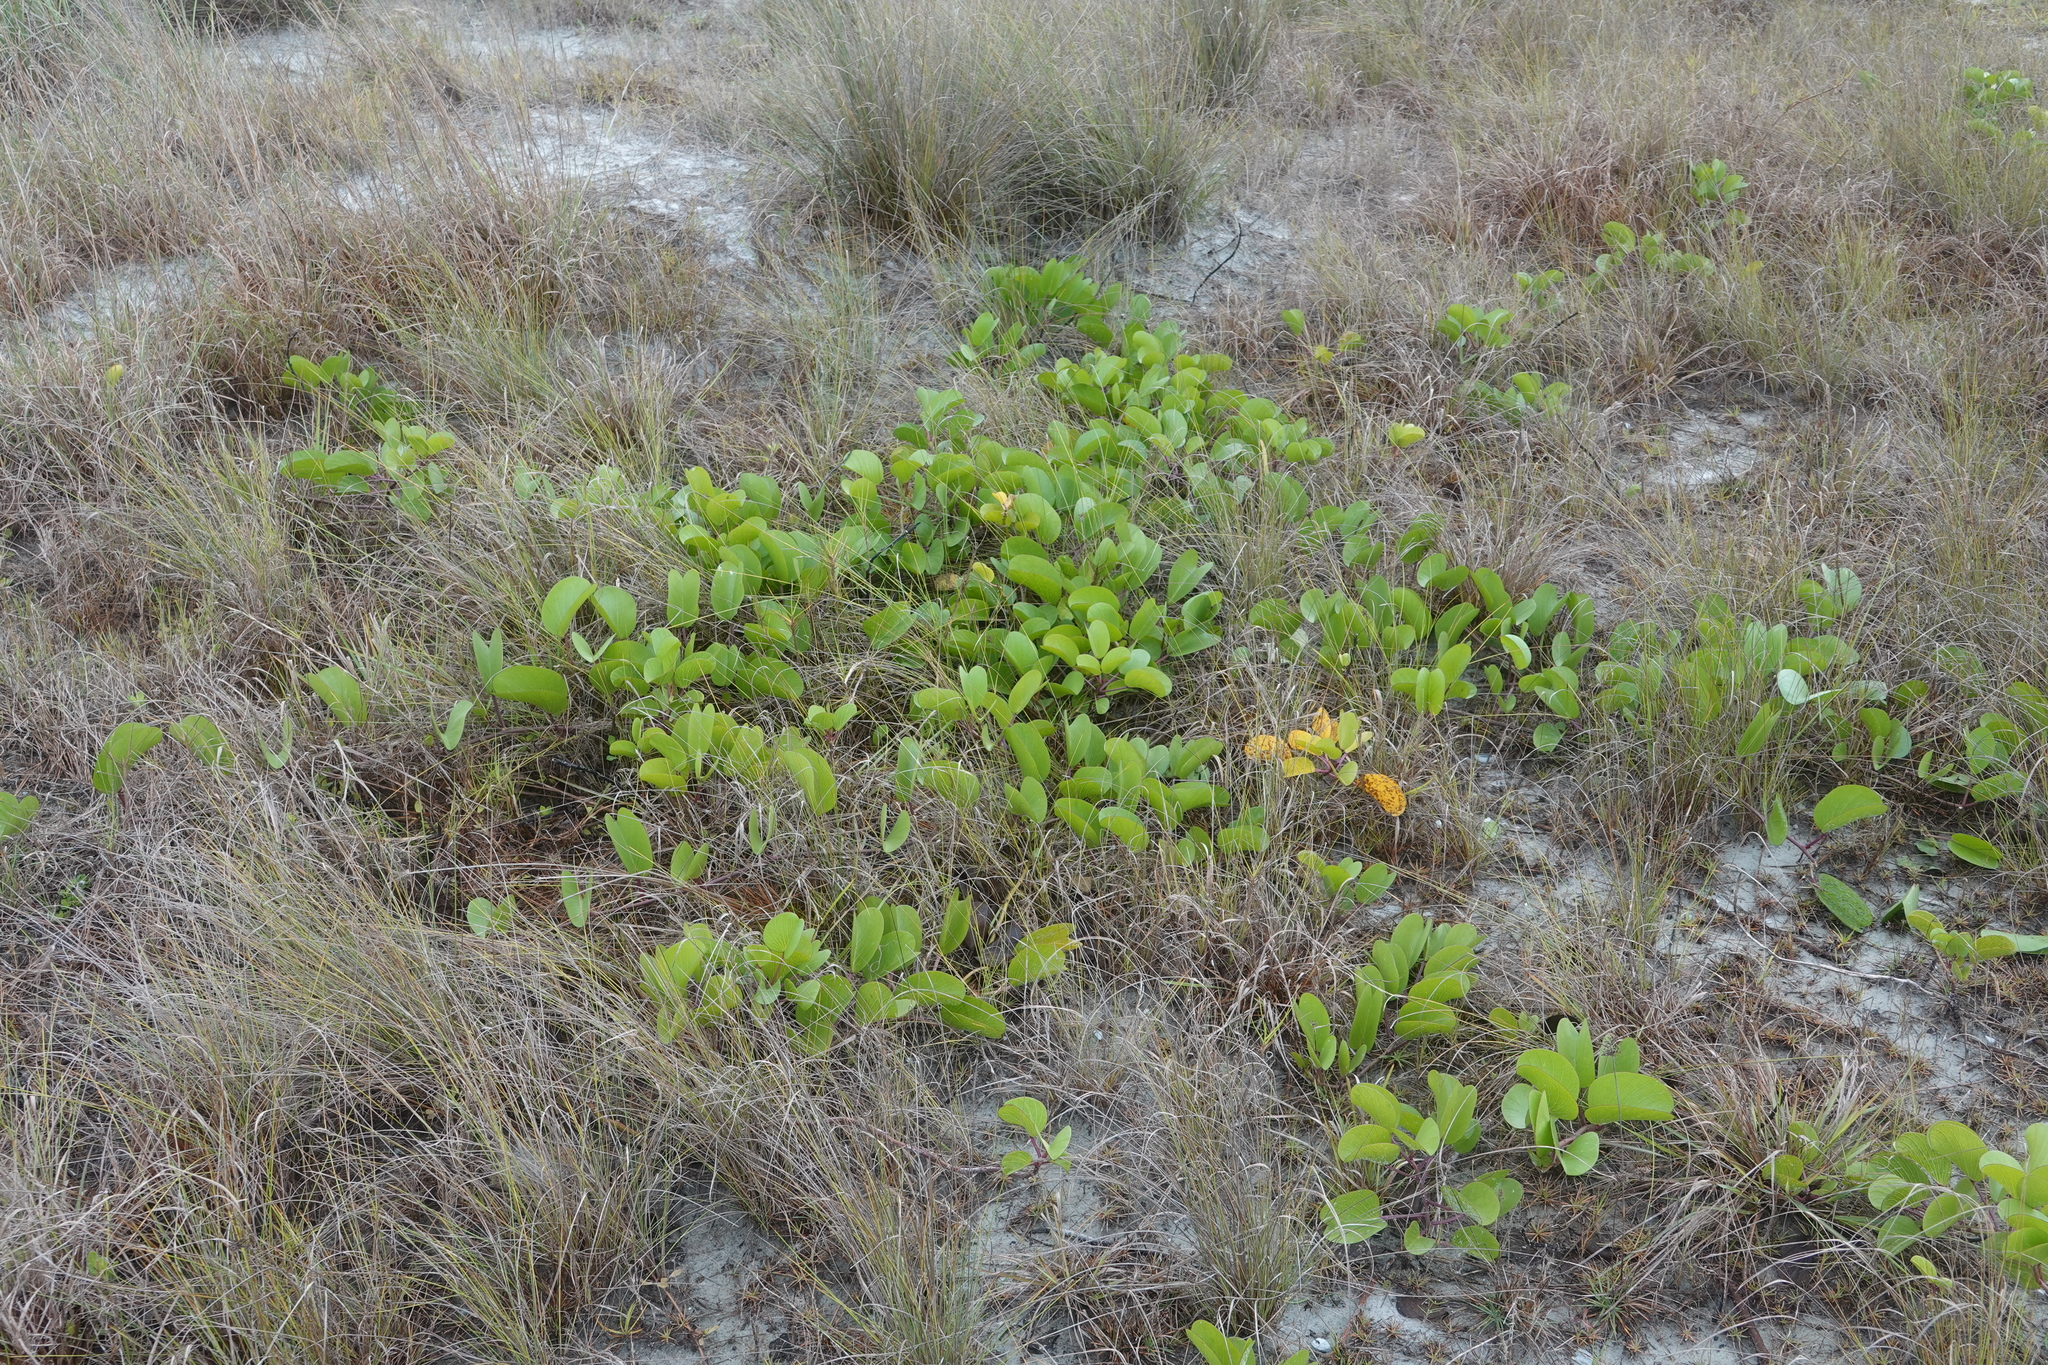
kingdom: Plantae
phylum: Tracheophyta
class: Magnoliopsida
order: Solanales
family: Convolvulaceae
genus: Ipomoea
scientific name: Ipomoea pes-caprae
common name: Beach morning glory
